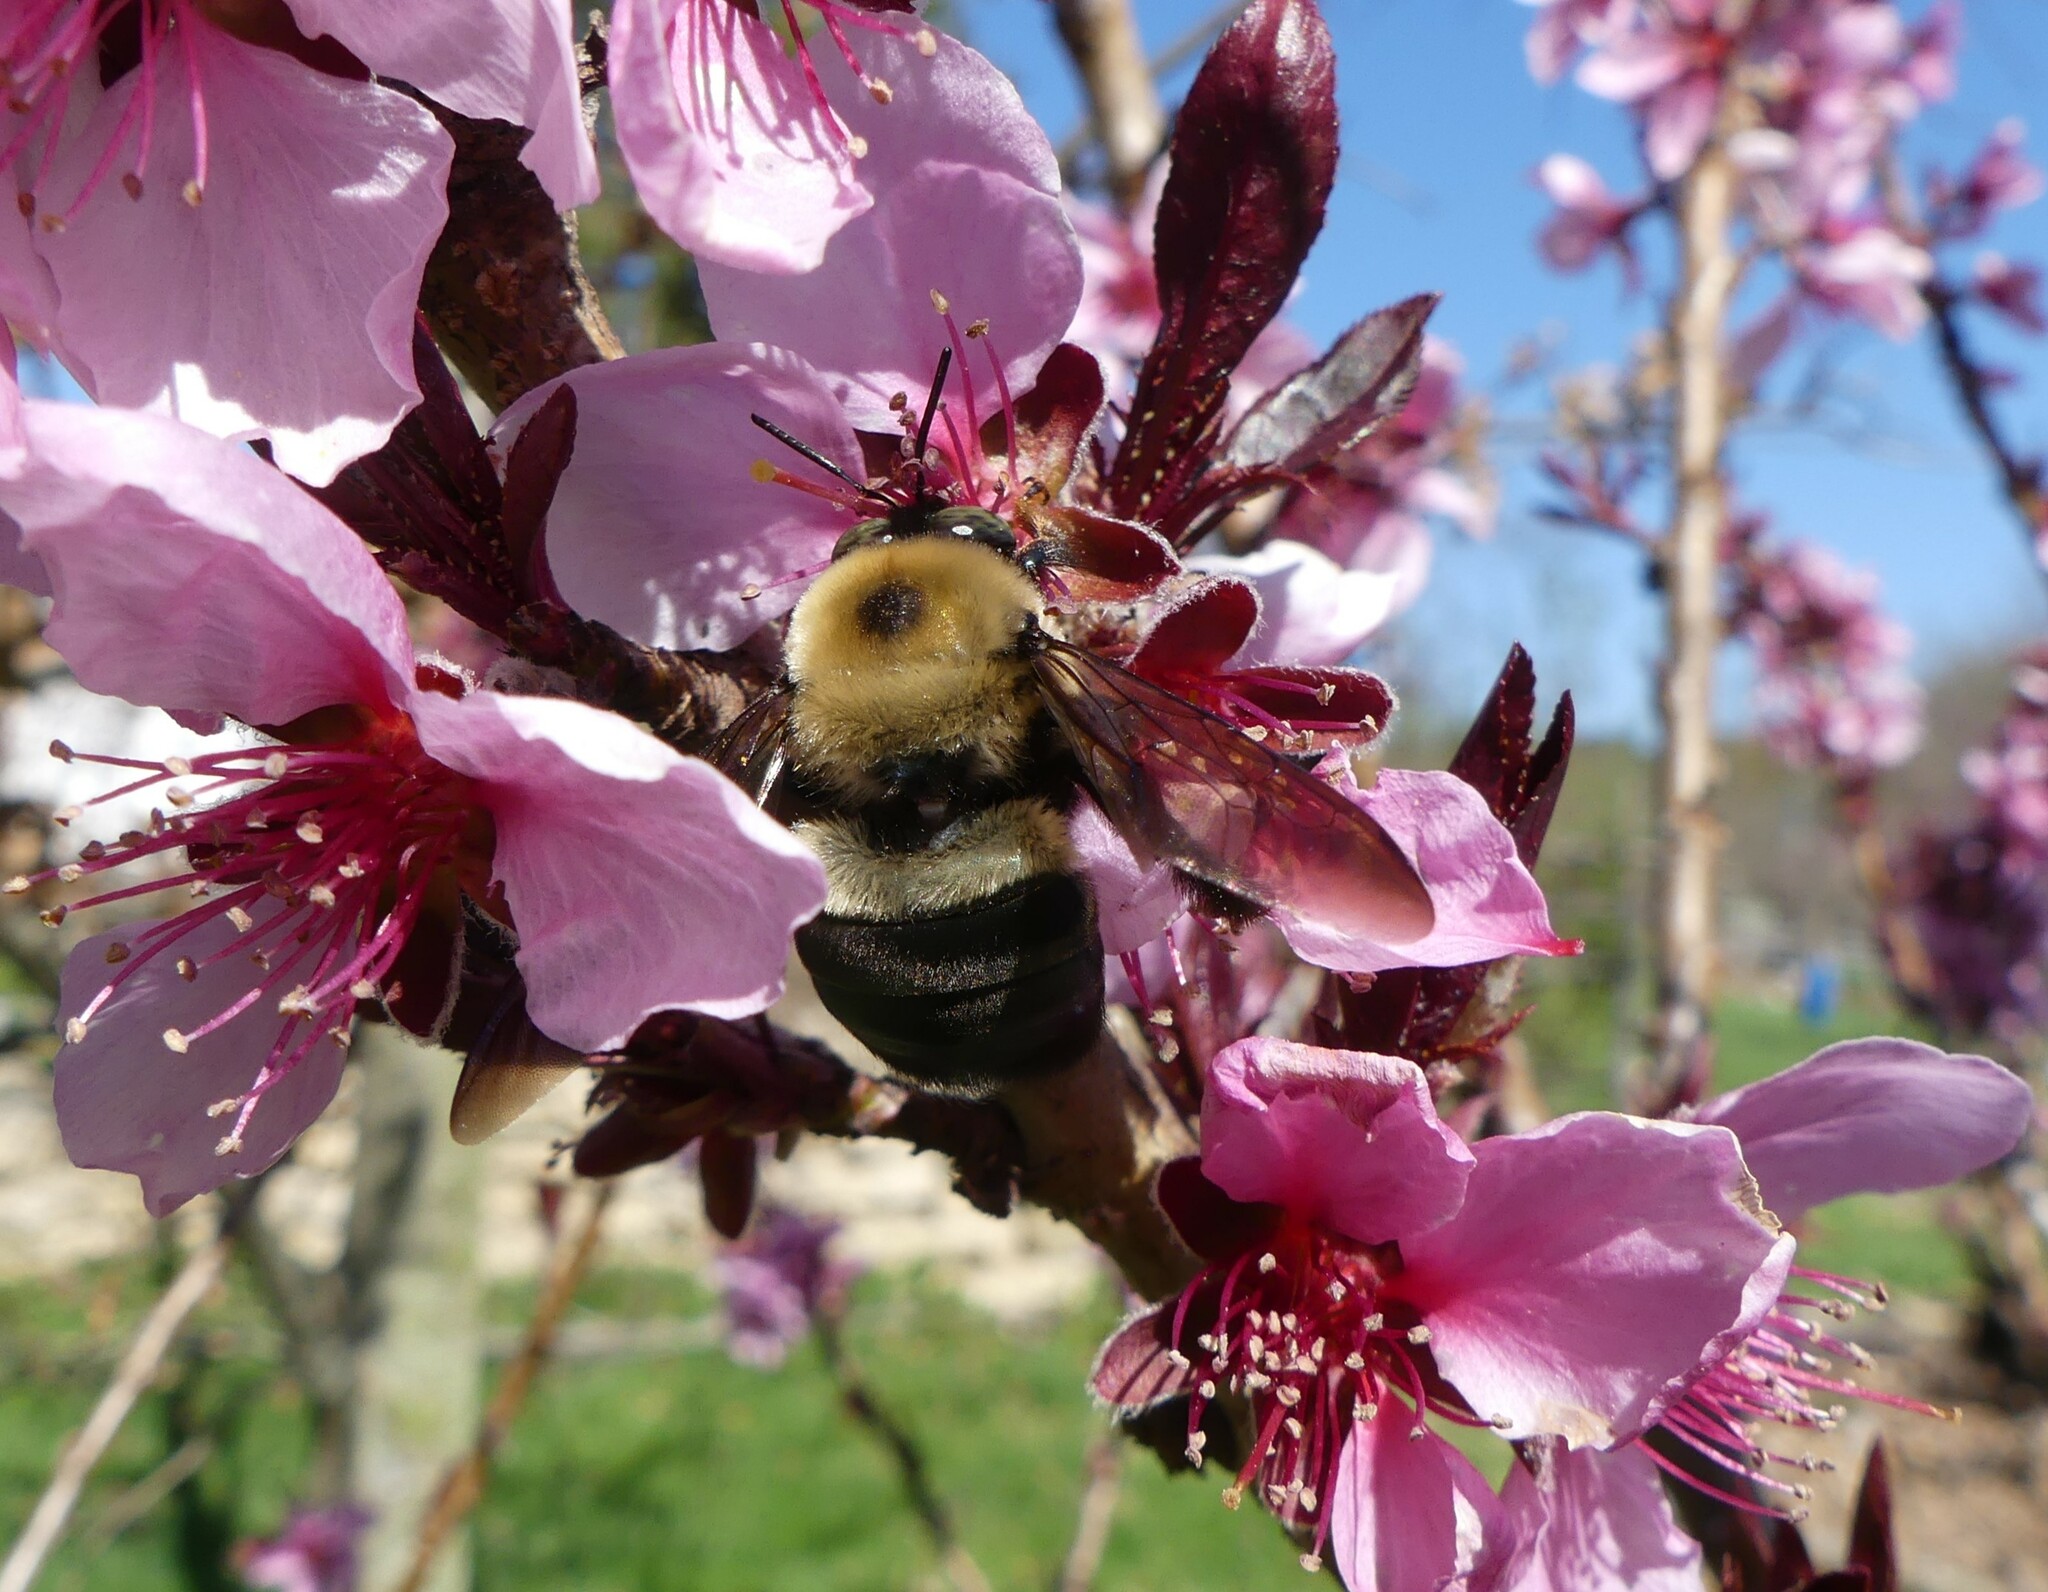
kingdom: Animalia
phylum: Arthropoda
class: Insecta
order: Hymenoptera
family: Apidae
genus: Xylocopa
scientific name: Xylocopa virginica
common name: Carpenter bee
